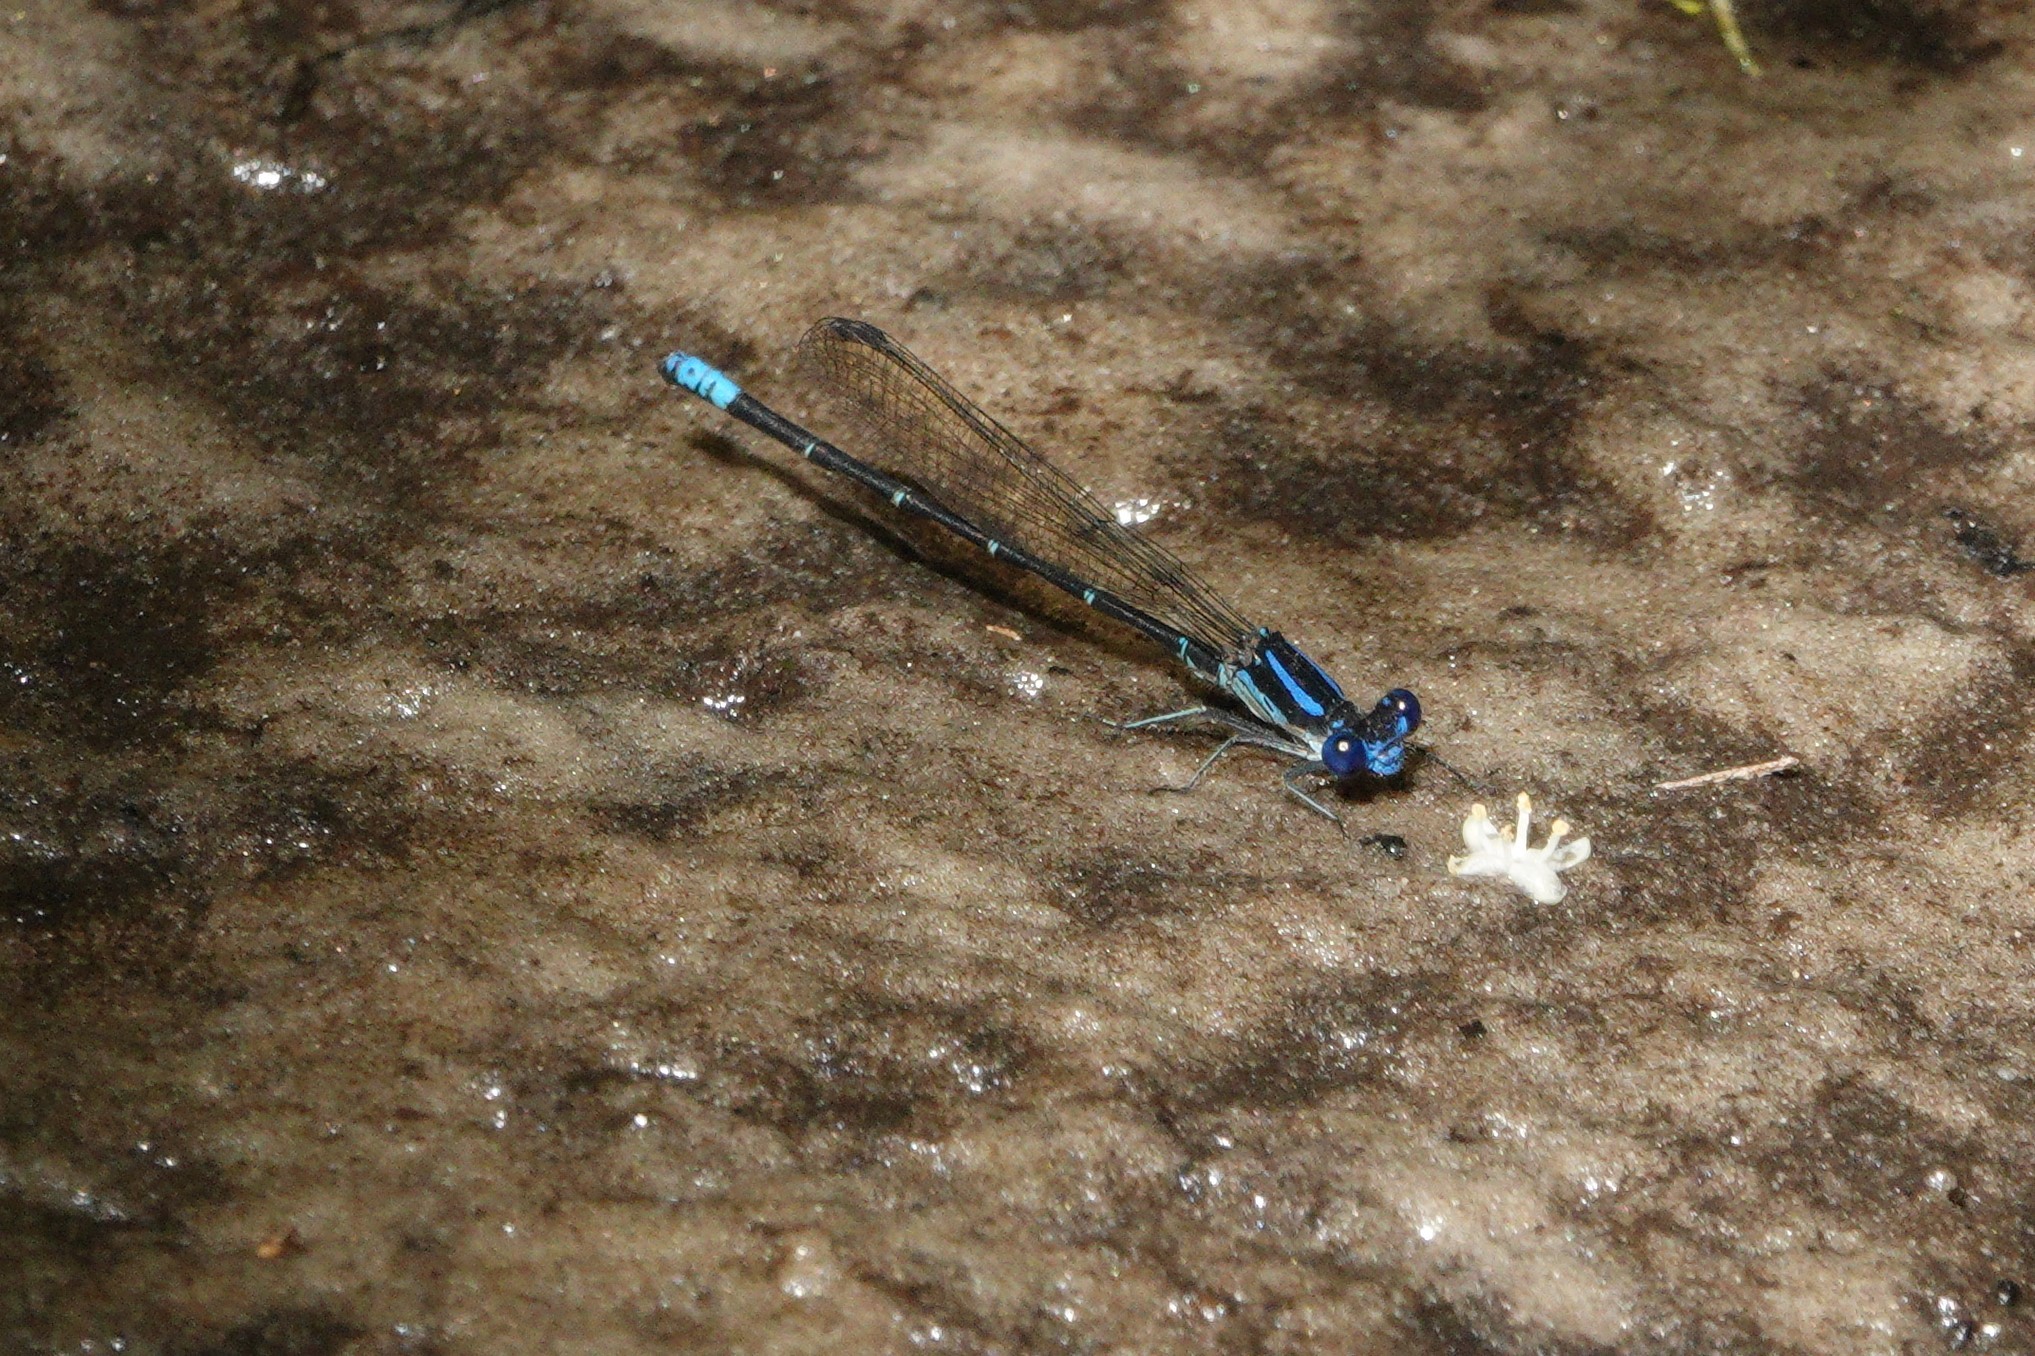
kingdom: Animalia
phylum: Arthropoda
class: Insecta
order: Odonata
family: Coenagrionidae
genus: Argia
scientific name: Argia sedula
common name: Blue-ringed dancer
